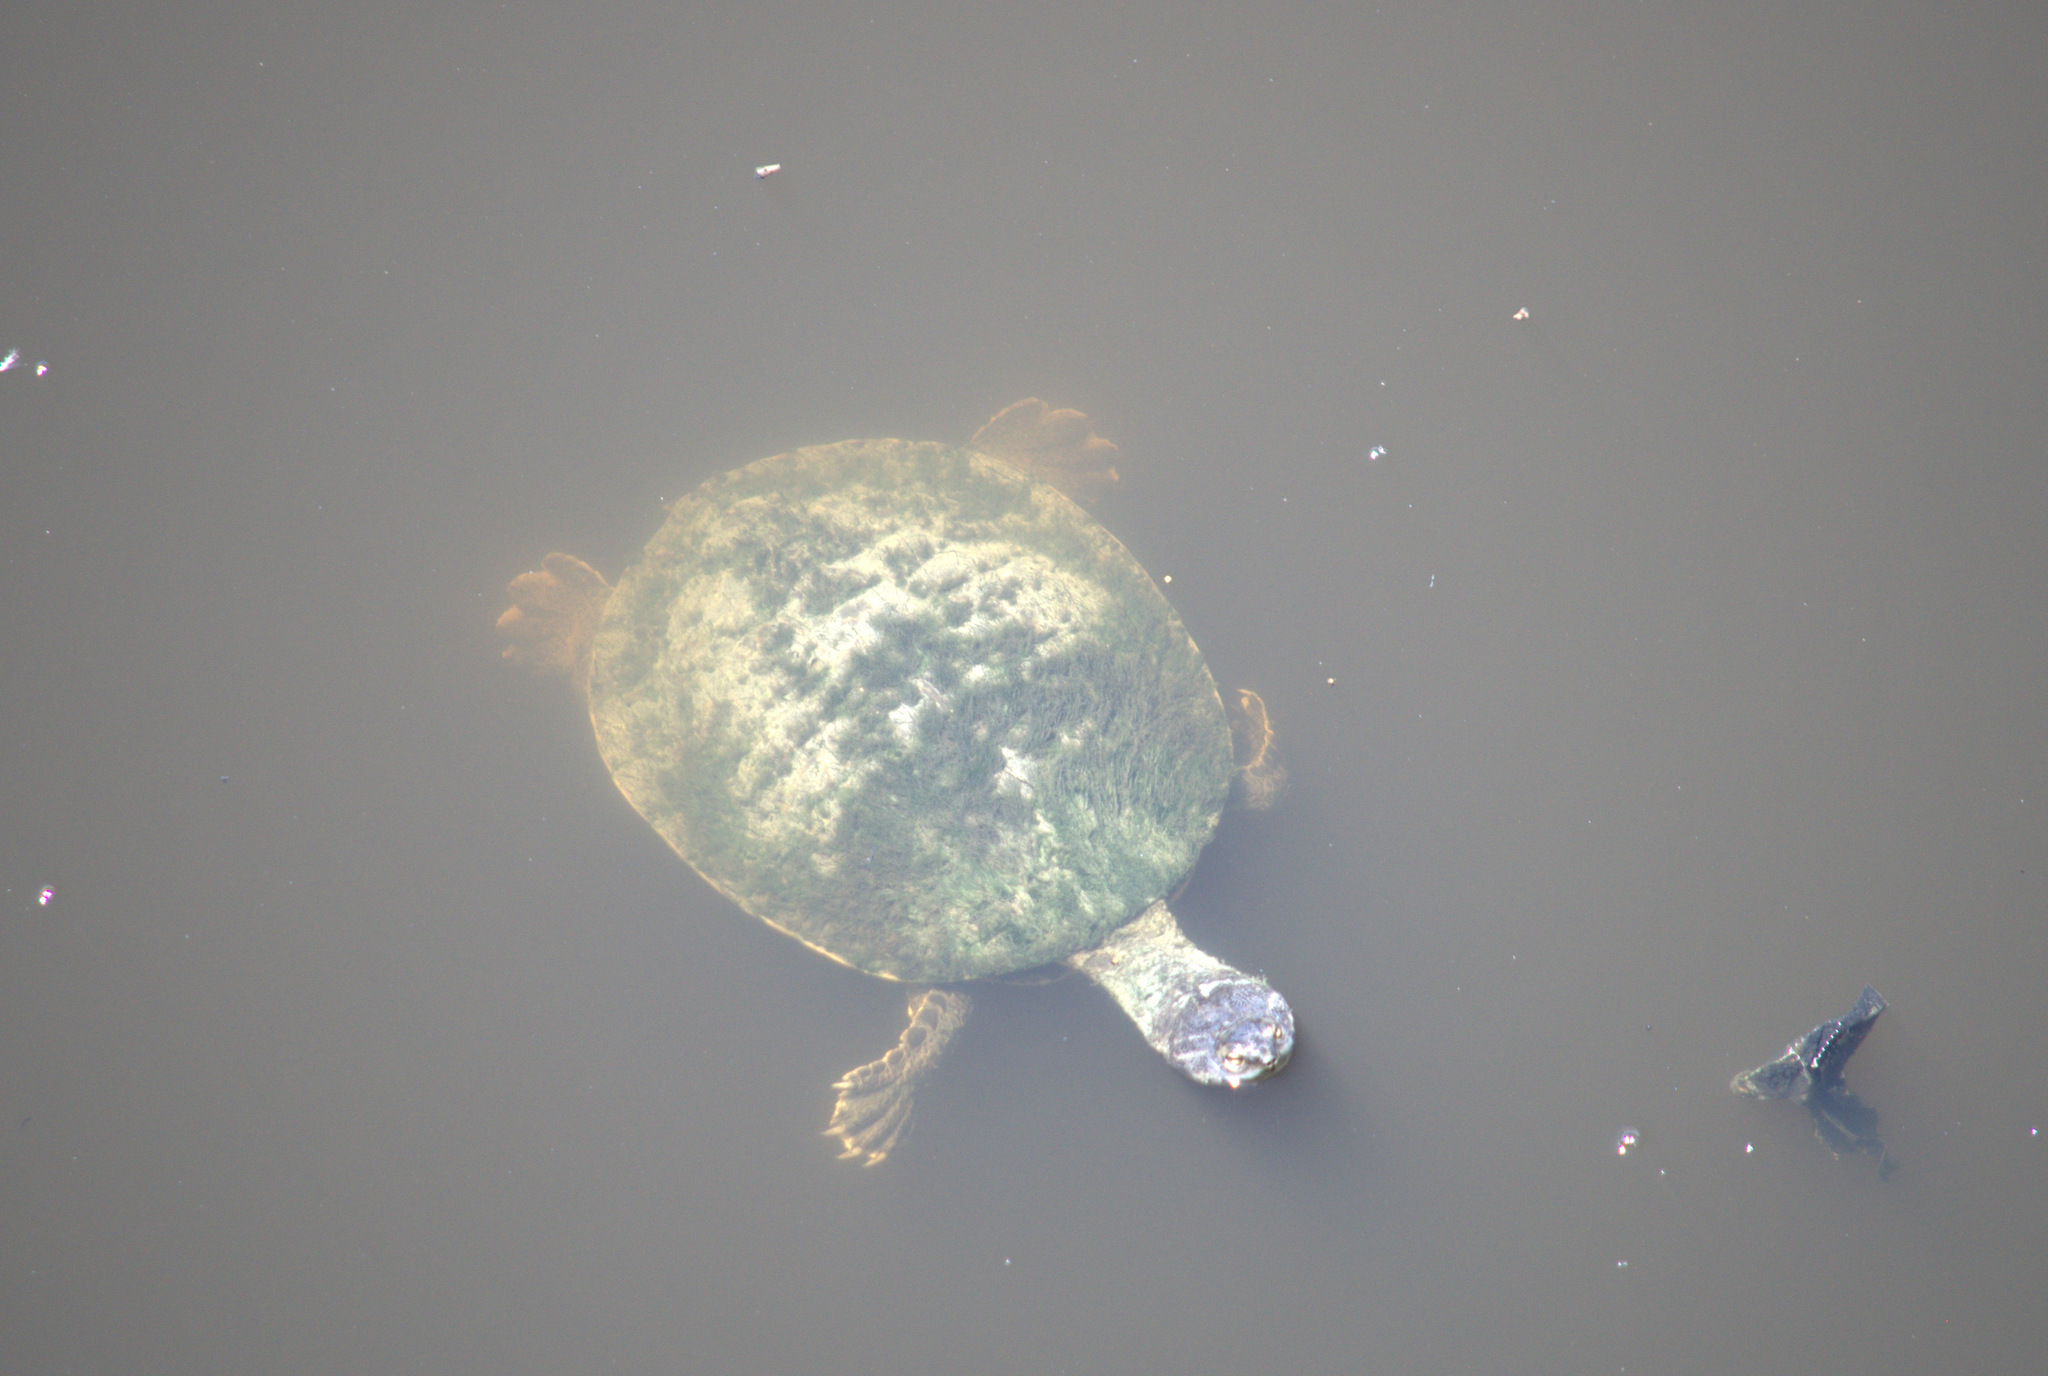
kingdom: Animalia
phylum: Chordata
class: Testudines
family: Chelidae
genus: Phrynops
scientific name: Phrynops geoffroanus
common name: Side-necked turtle of geoffroy
